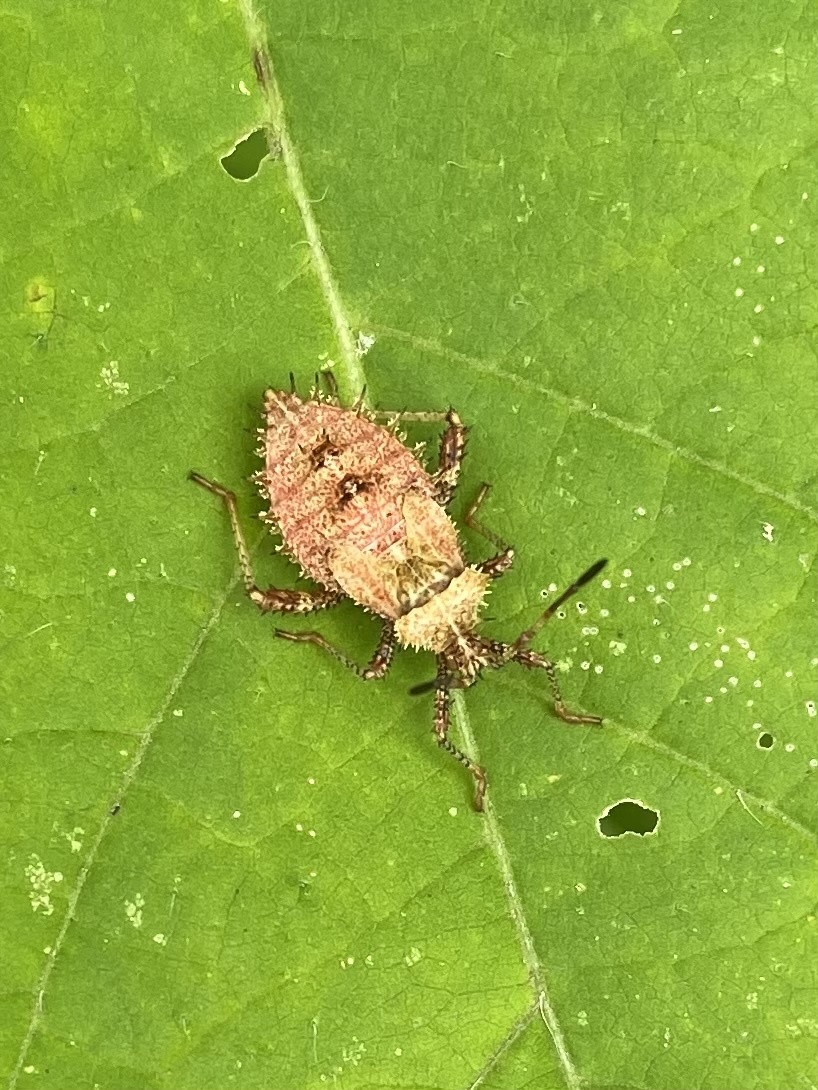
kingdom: Animalia
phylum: Arthropoda
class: Insecta
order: Hemiptera
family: Coreidae
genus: Euthochtha
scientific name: Euthochtha galeator
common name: Helmeted squash bug
